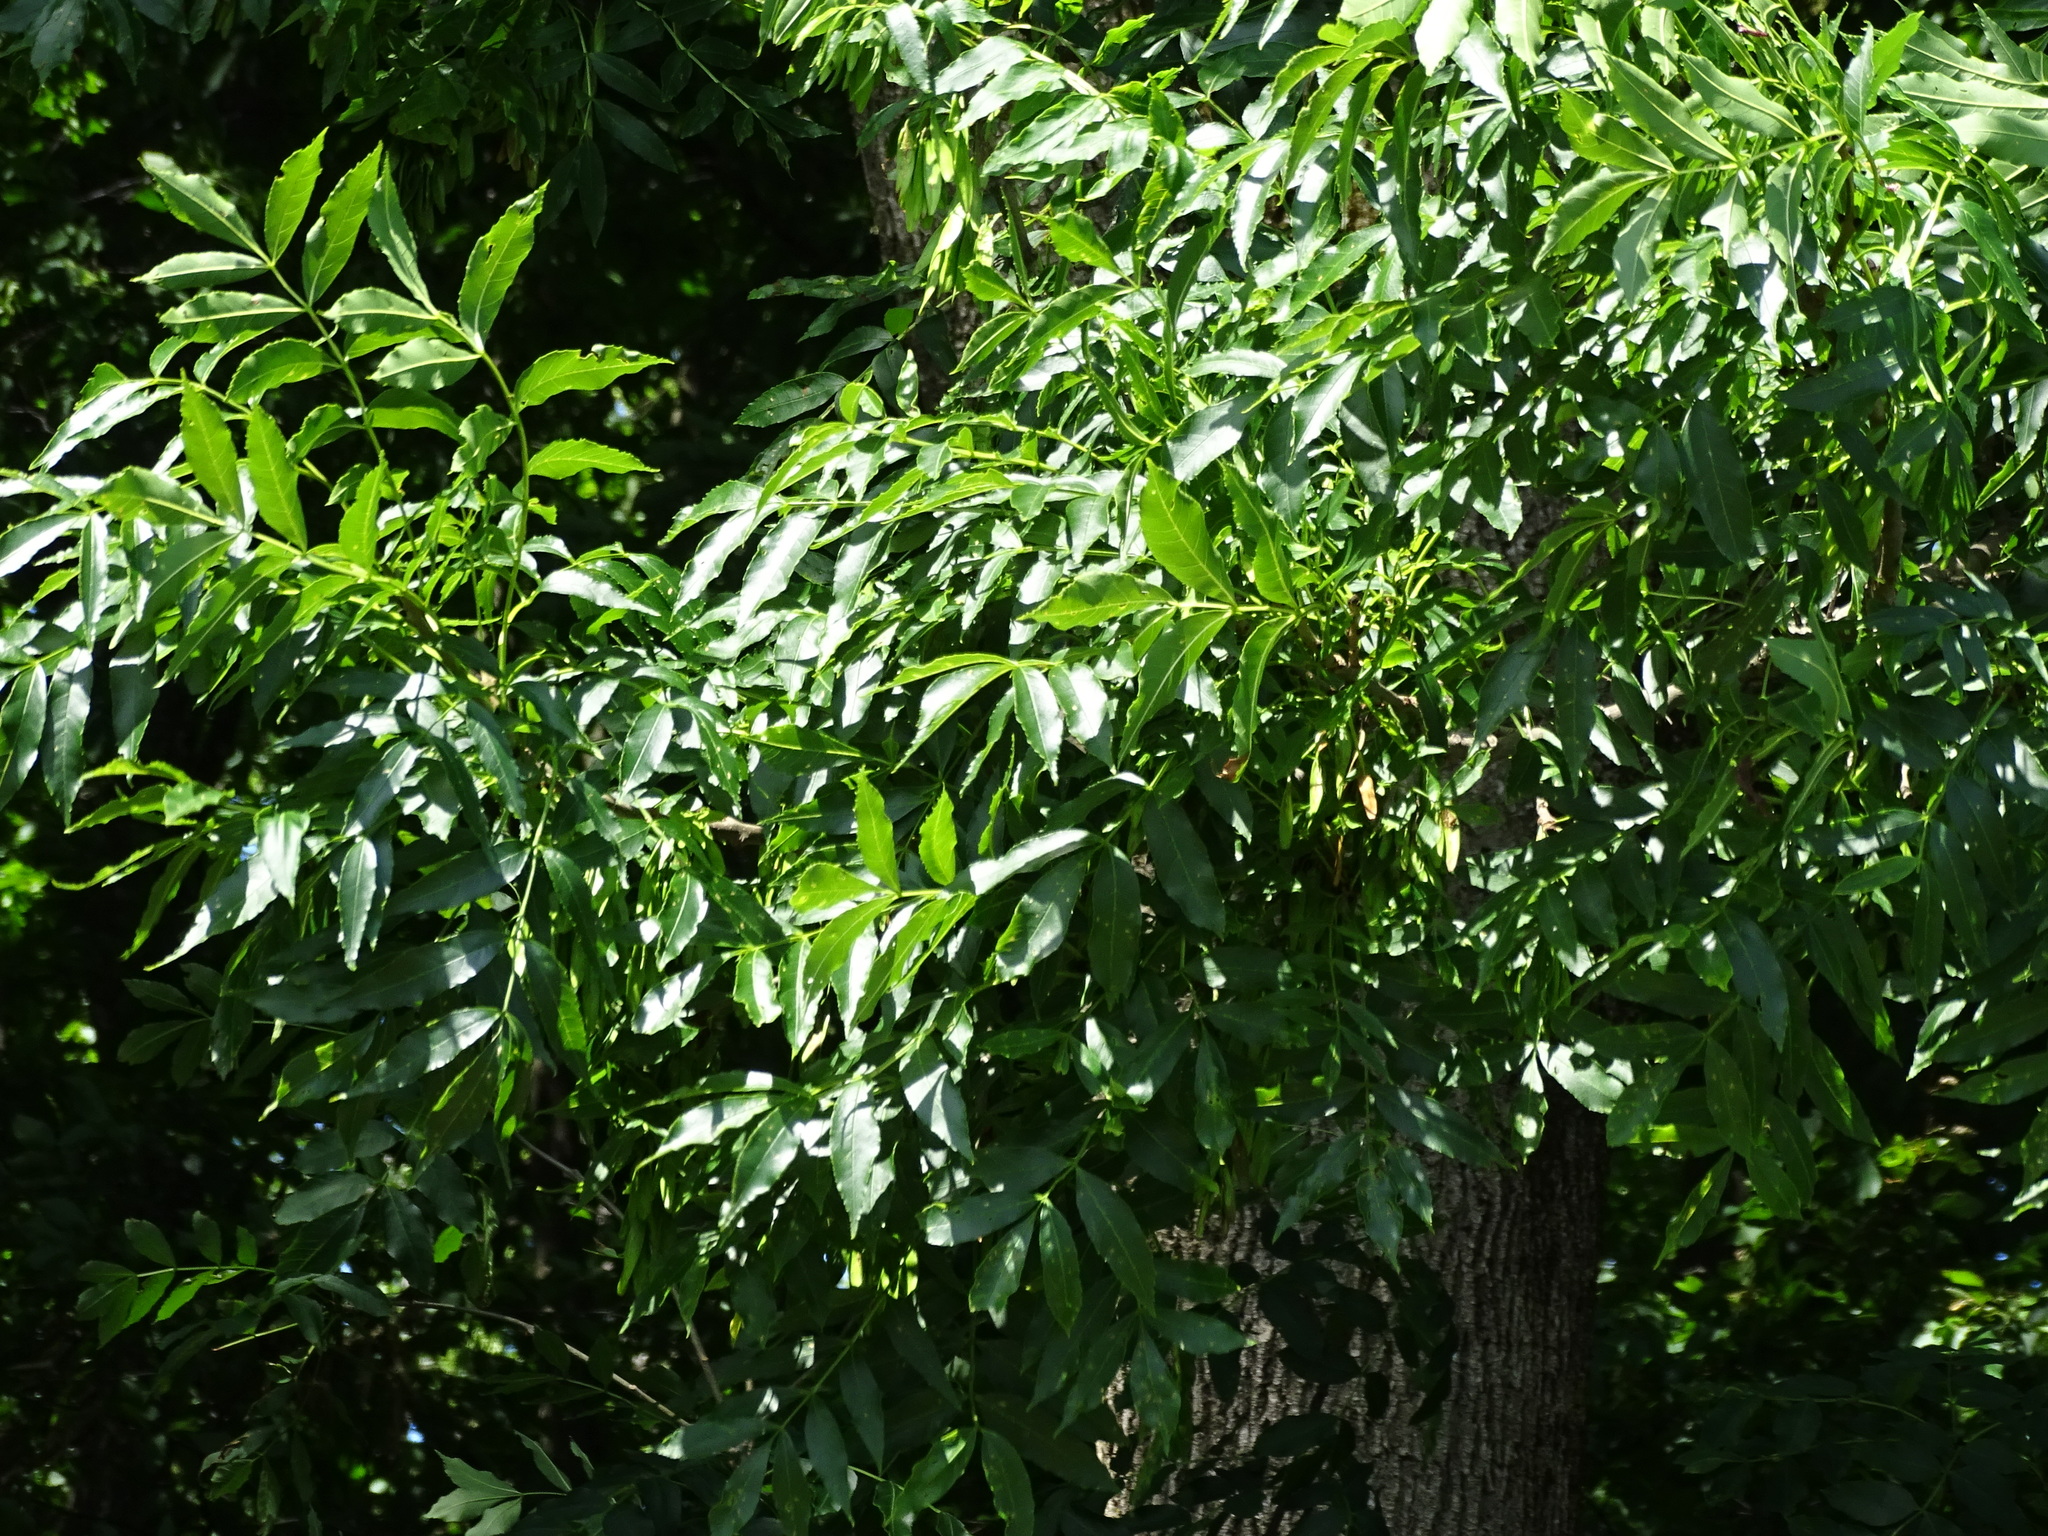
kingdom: Plantae
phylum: Tracheophyta
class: Magnoliopsida
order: Lamiales
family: Oleaceae
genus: Fraxinus
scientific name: Fraxinus excelsior
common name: European ash
